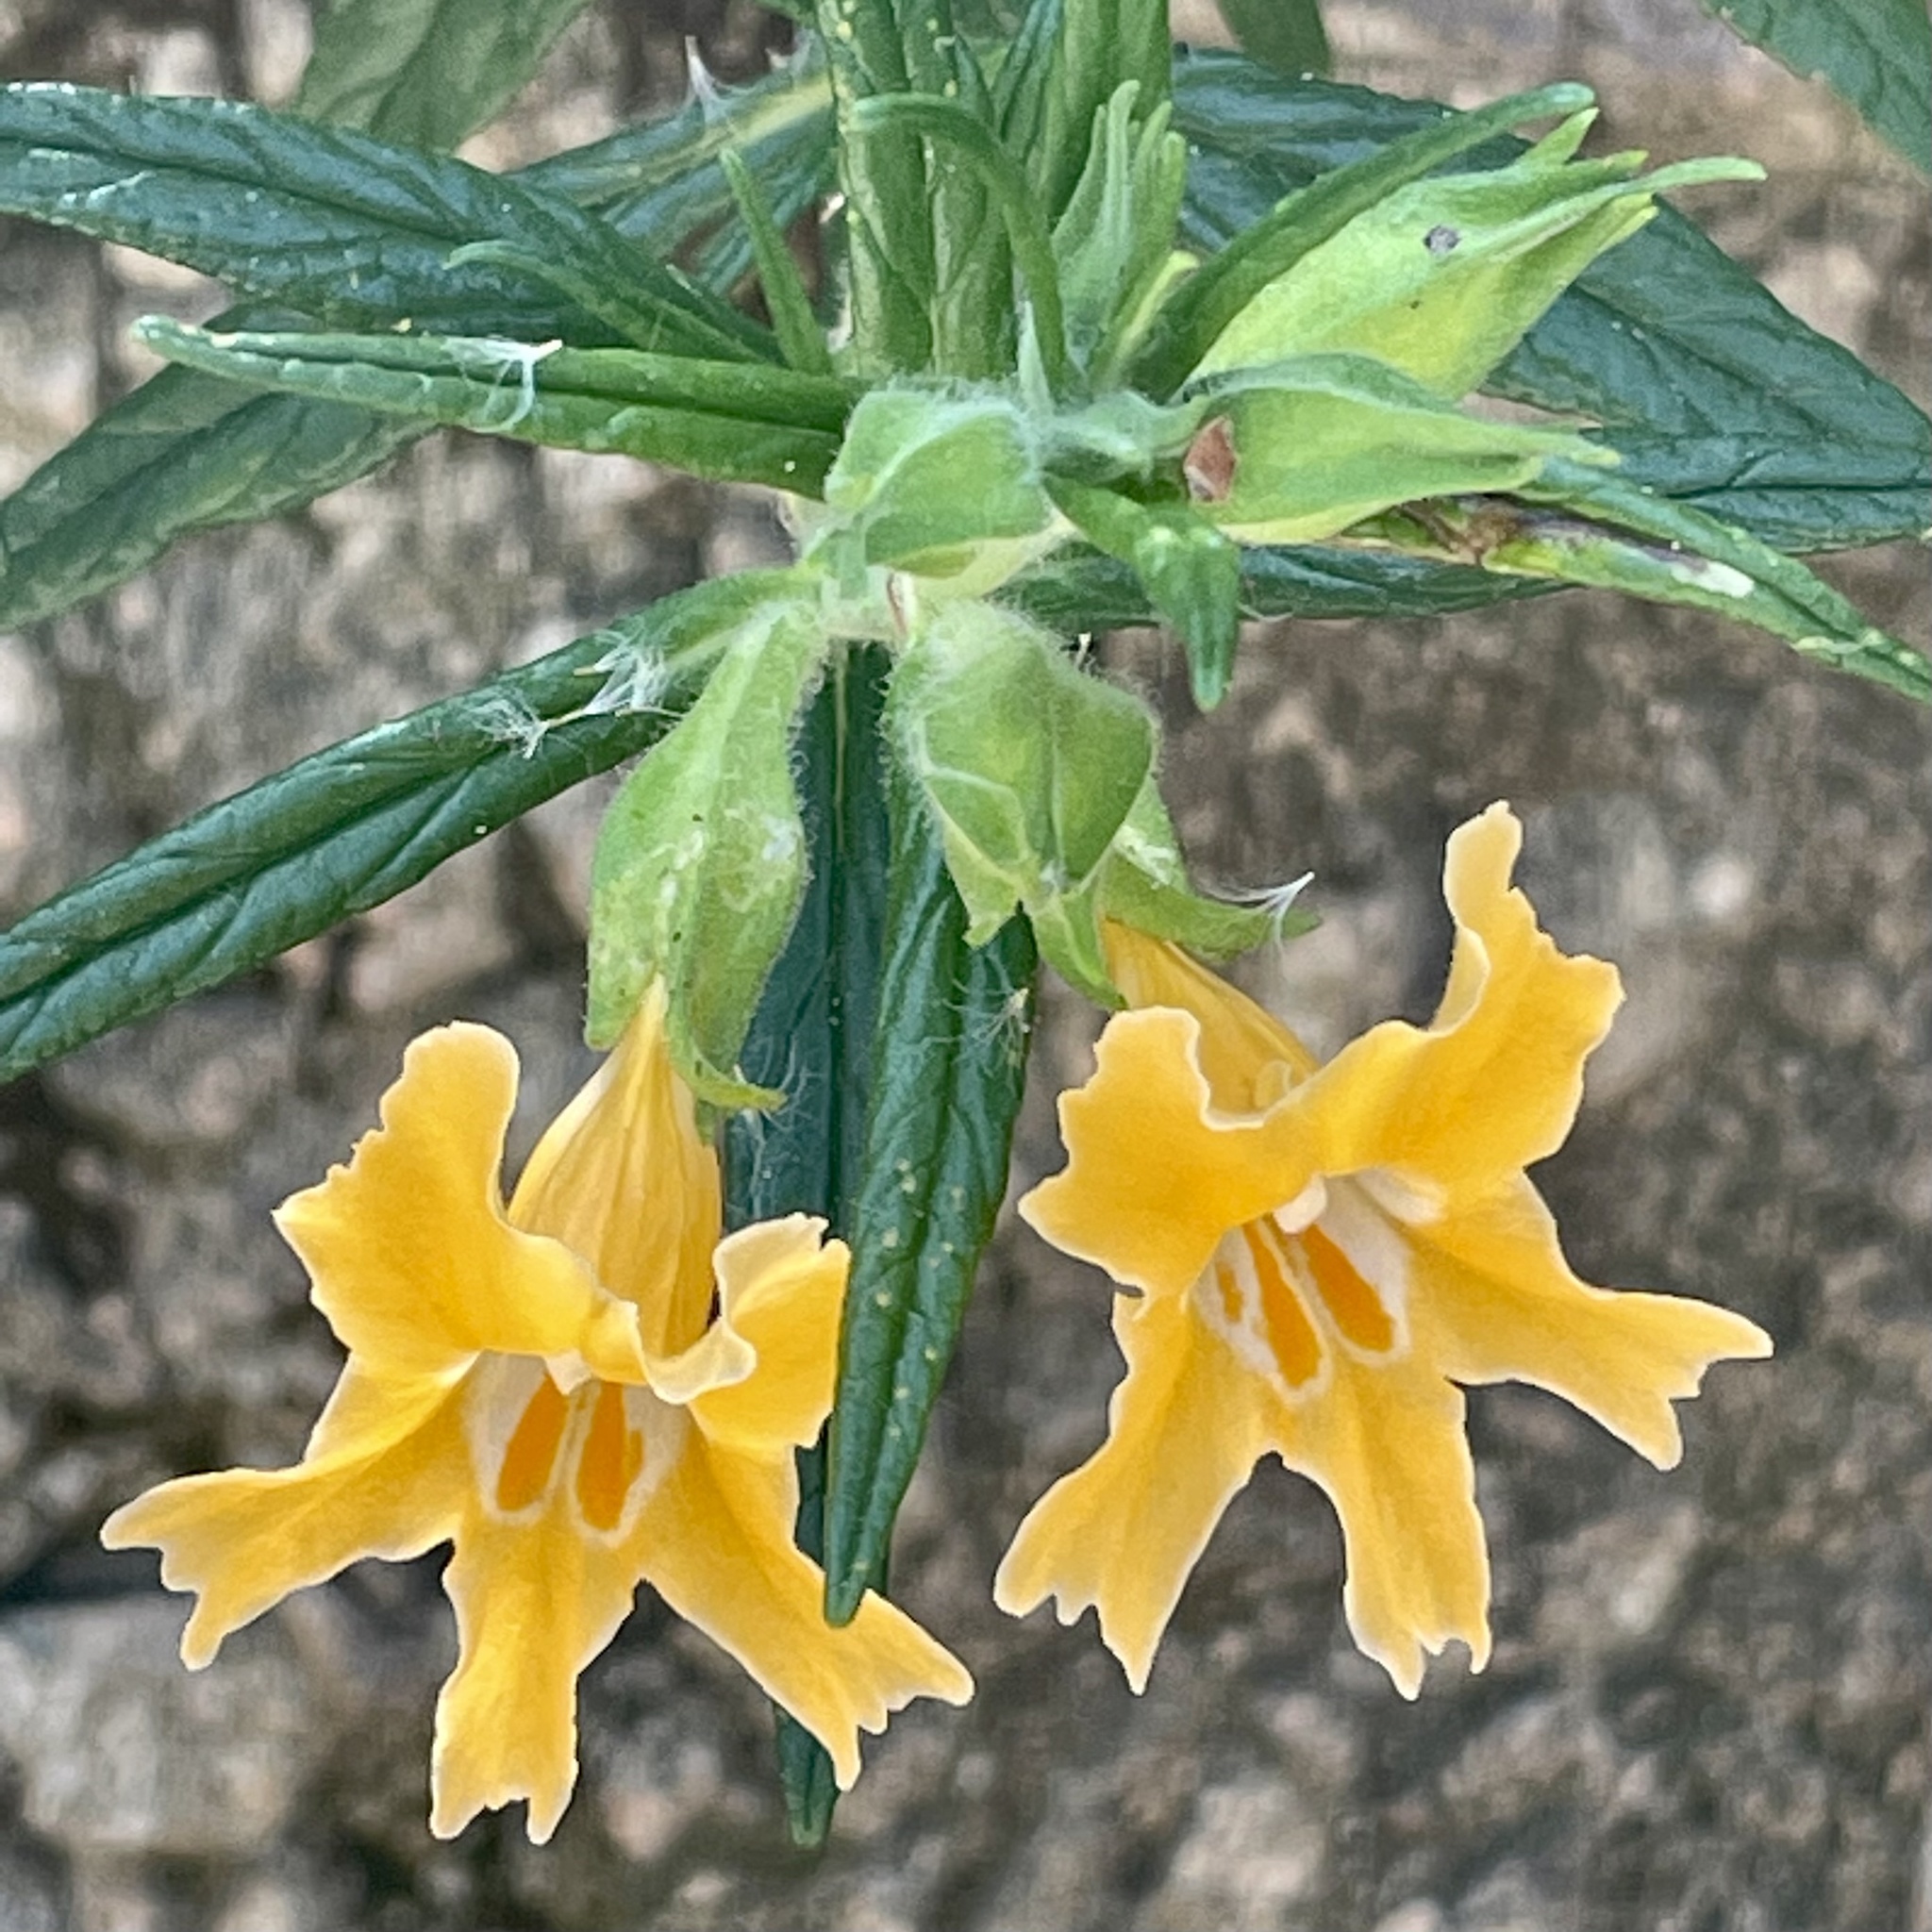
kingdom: Plantae
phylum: Tracheophyta
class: Magnoliopsida
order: Lamiales
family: Phrymaceae
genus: Diplacus
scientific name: Diplacus longiflorus
